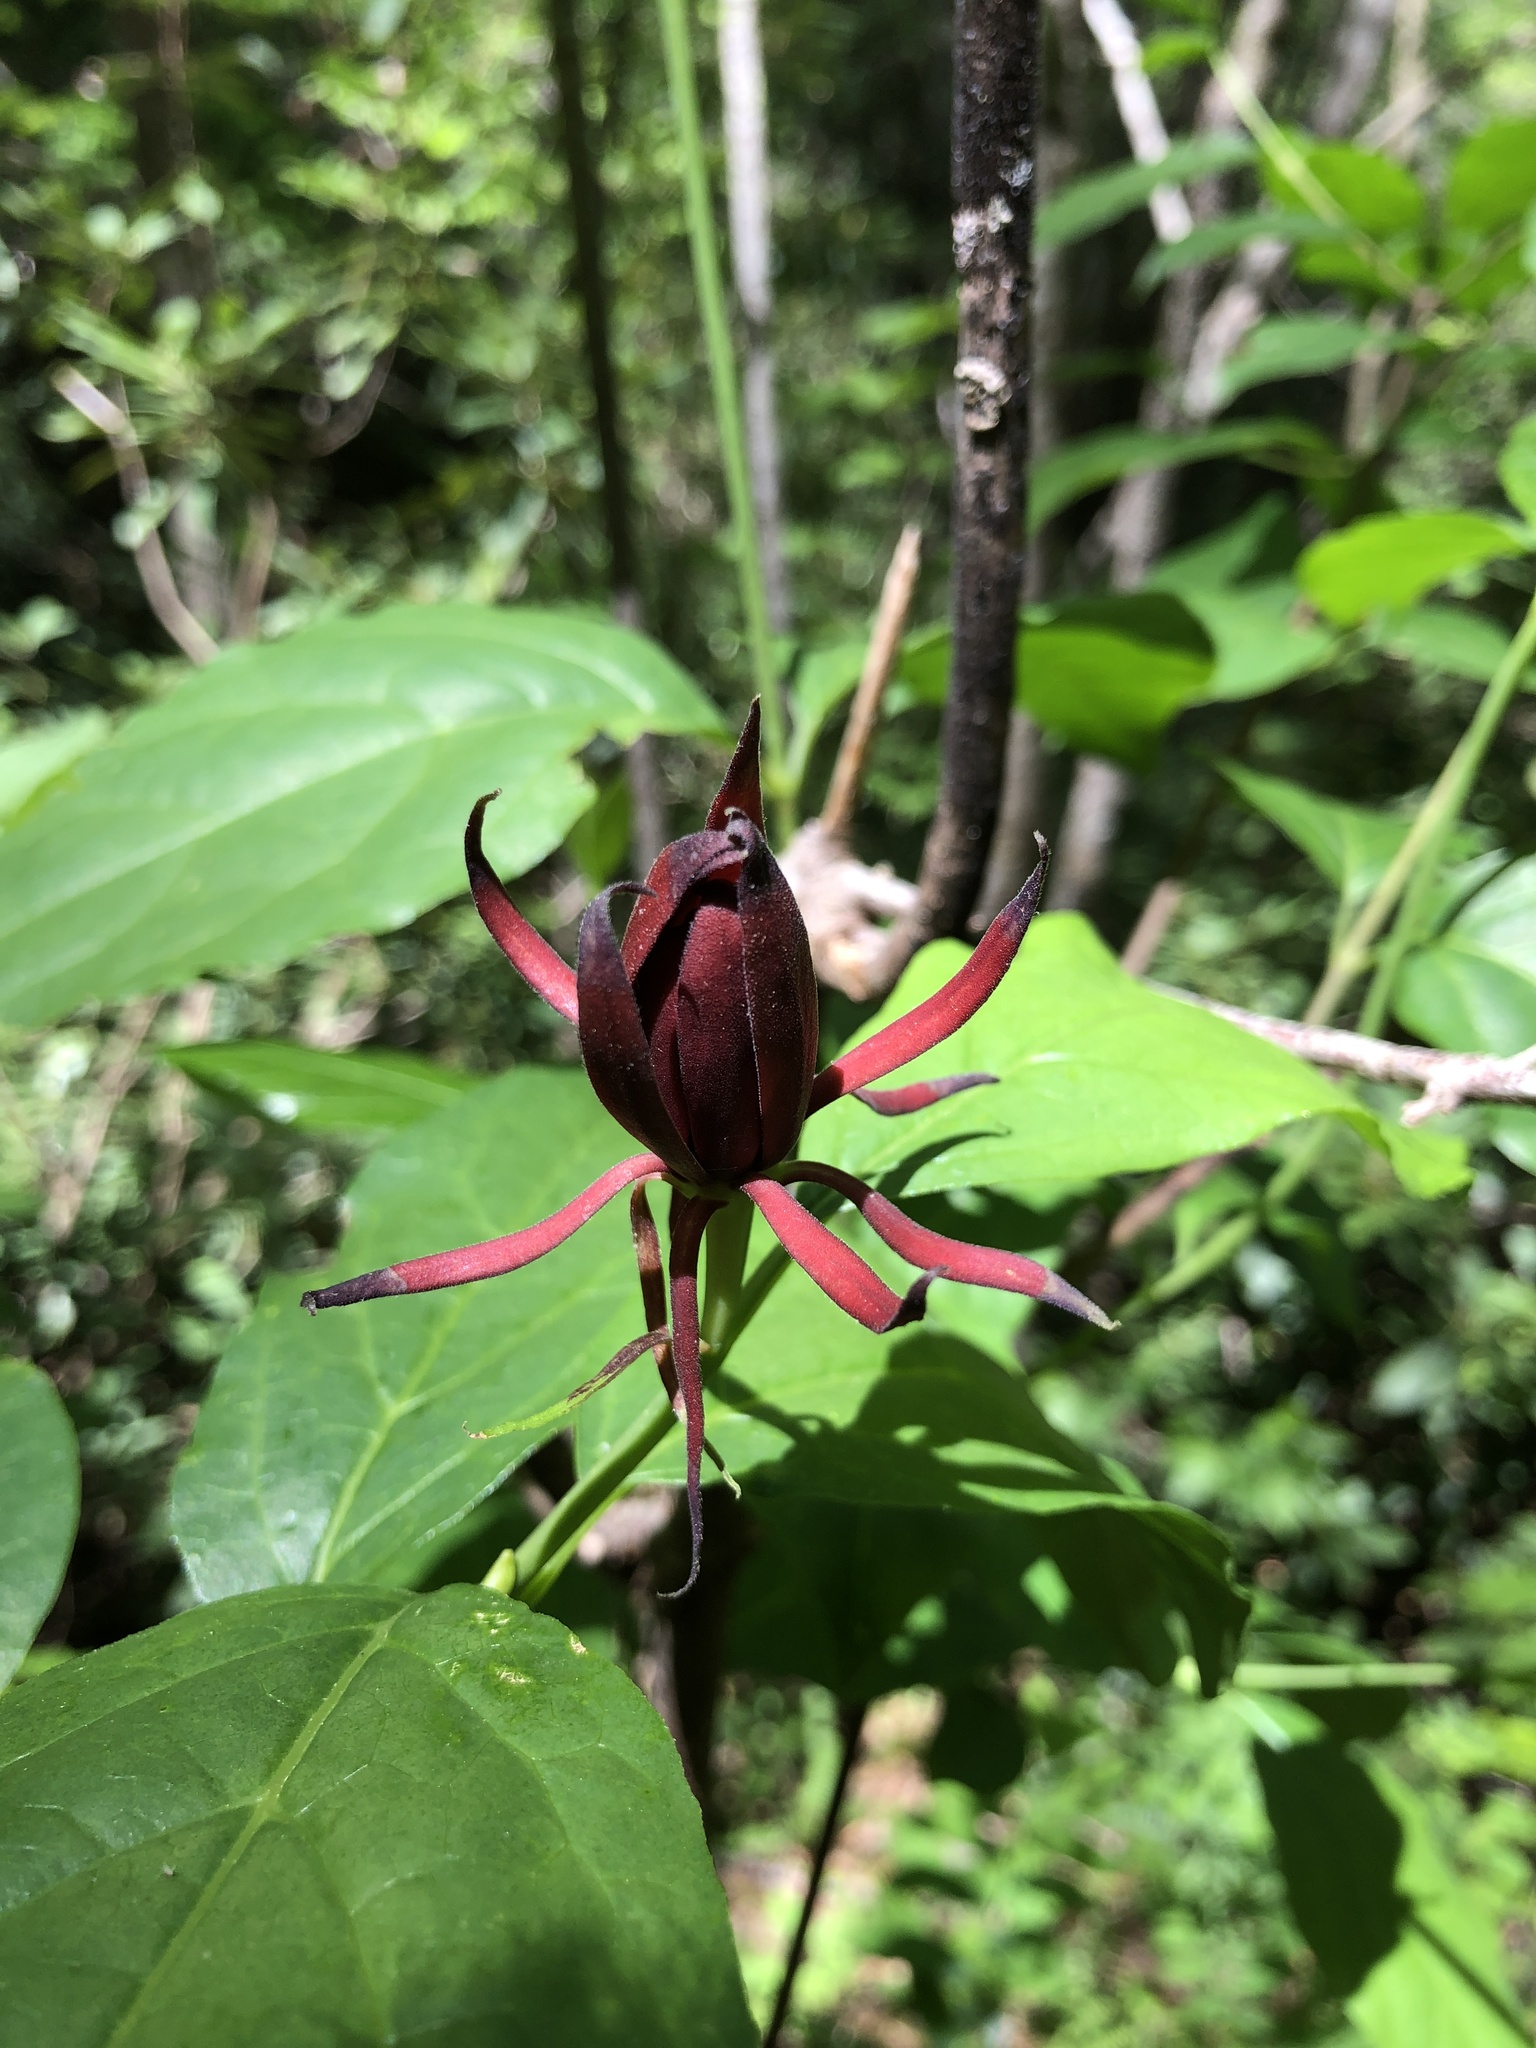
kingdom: Plantae
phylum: Tracheophyta
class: Magnoliopsida
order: Laurales
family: Calycanthaceae
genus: Calycanthus
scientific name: Calycanthus floridus
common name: Carolina-allspice
